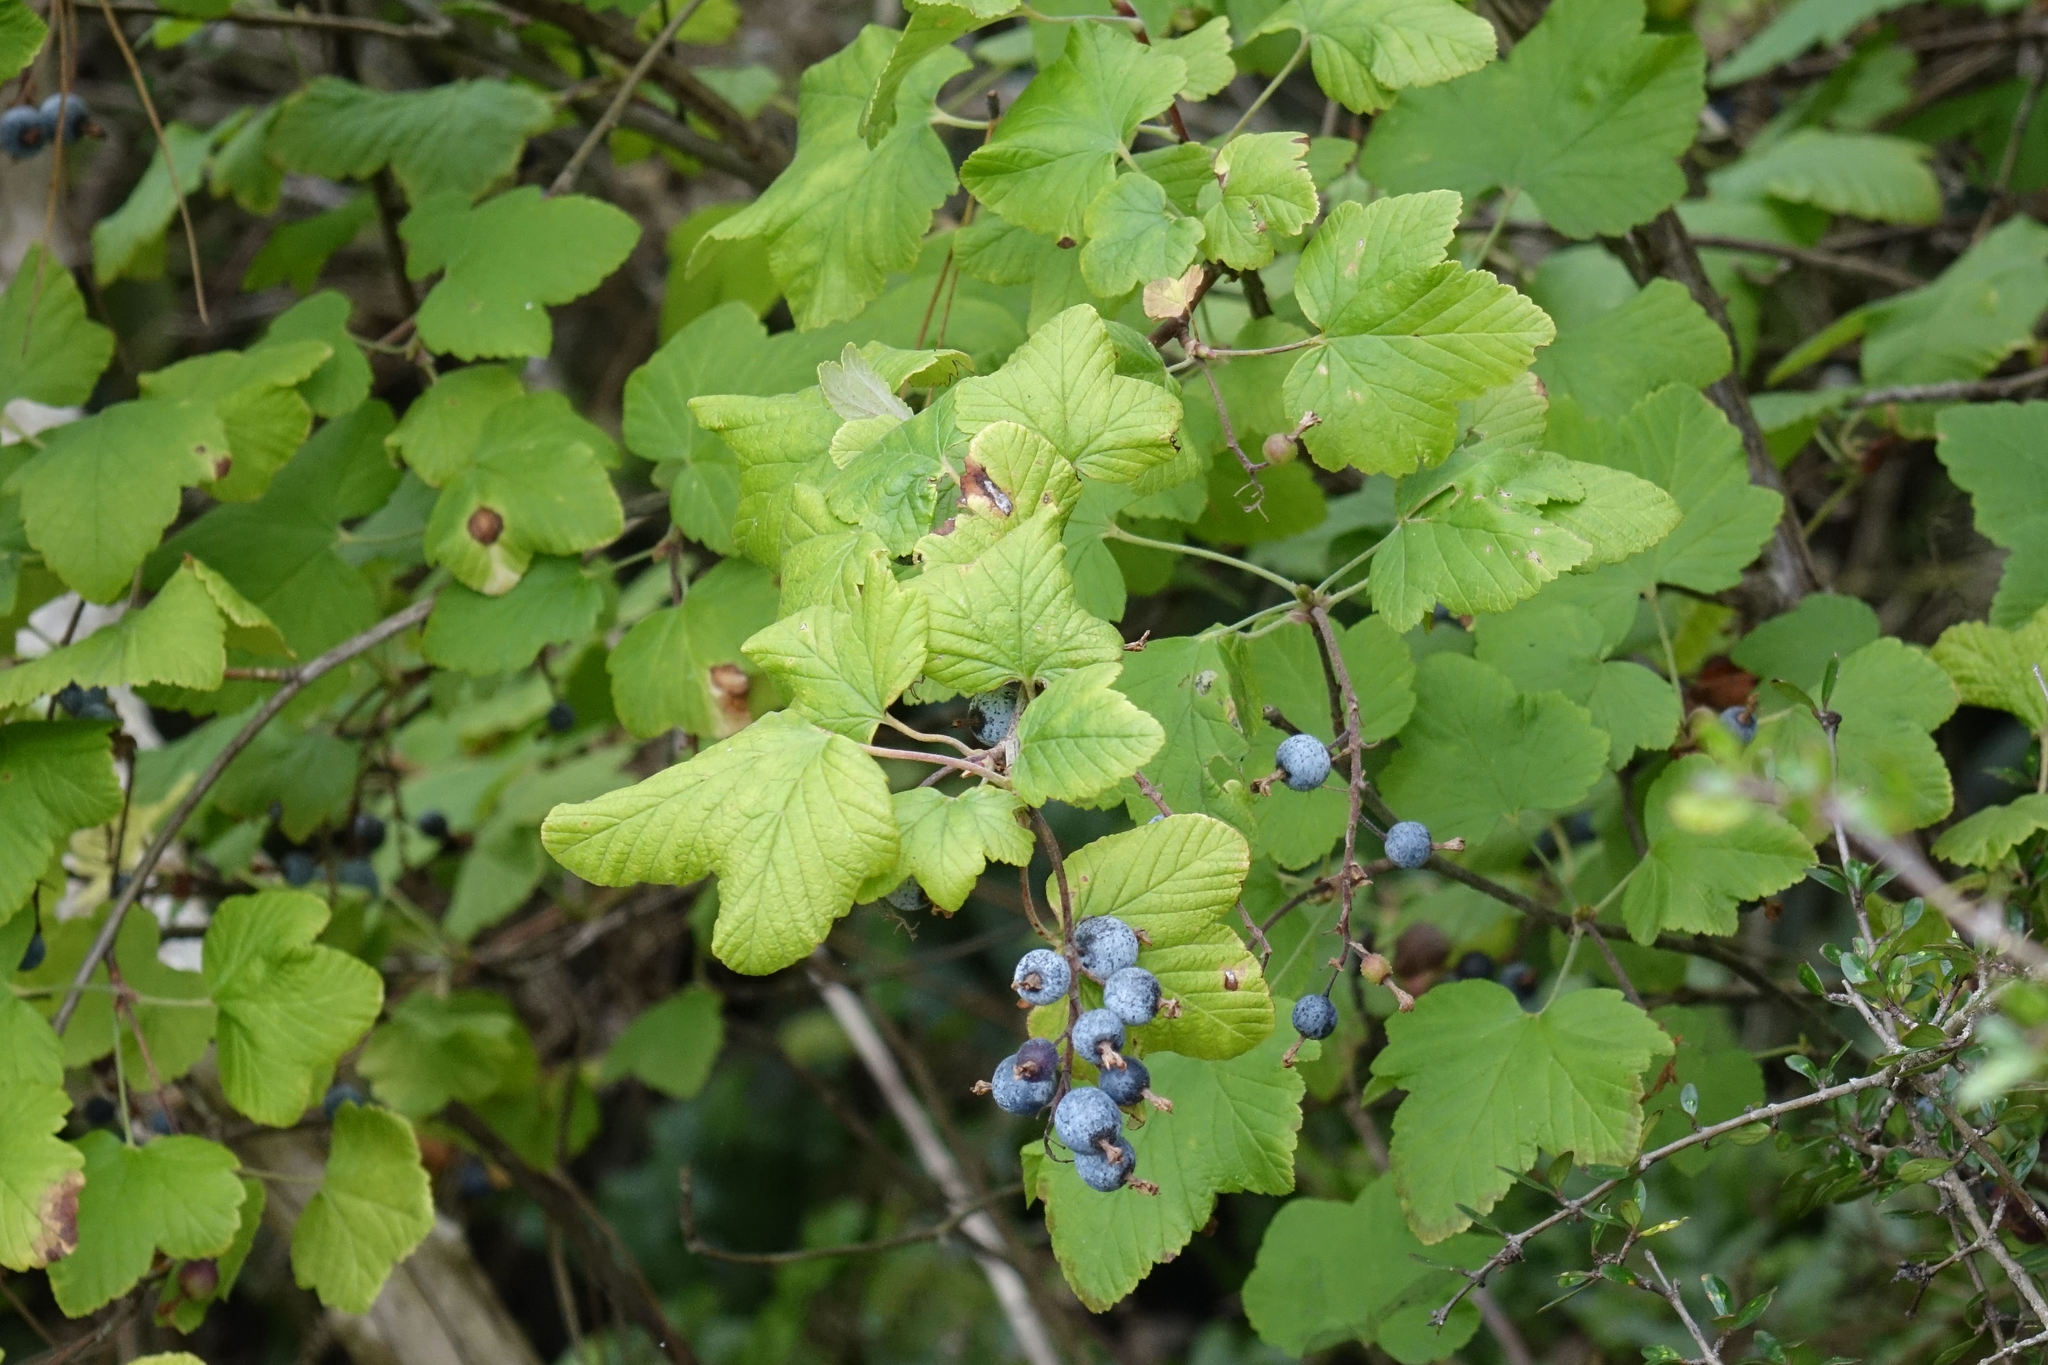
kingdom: Plantae
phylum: Tracheophyta
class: Magnoliopsida
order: Saxifragales
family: Grossulariaceae
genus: Ribes
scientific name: Ribes sanguineum
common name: Flowering currant
